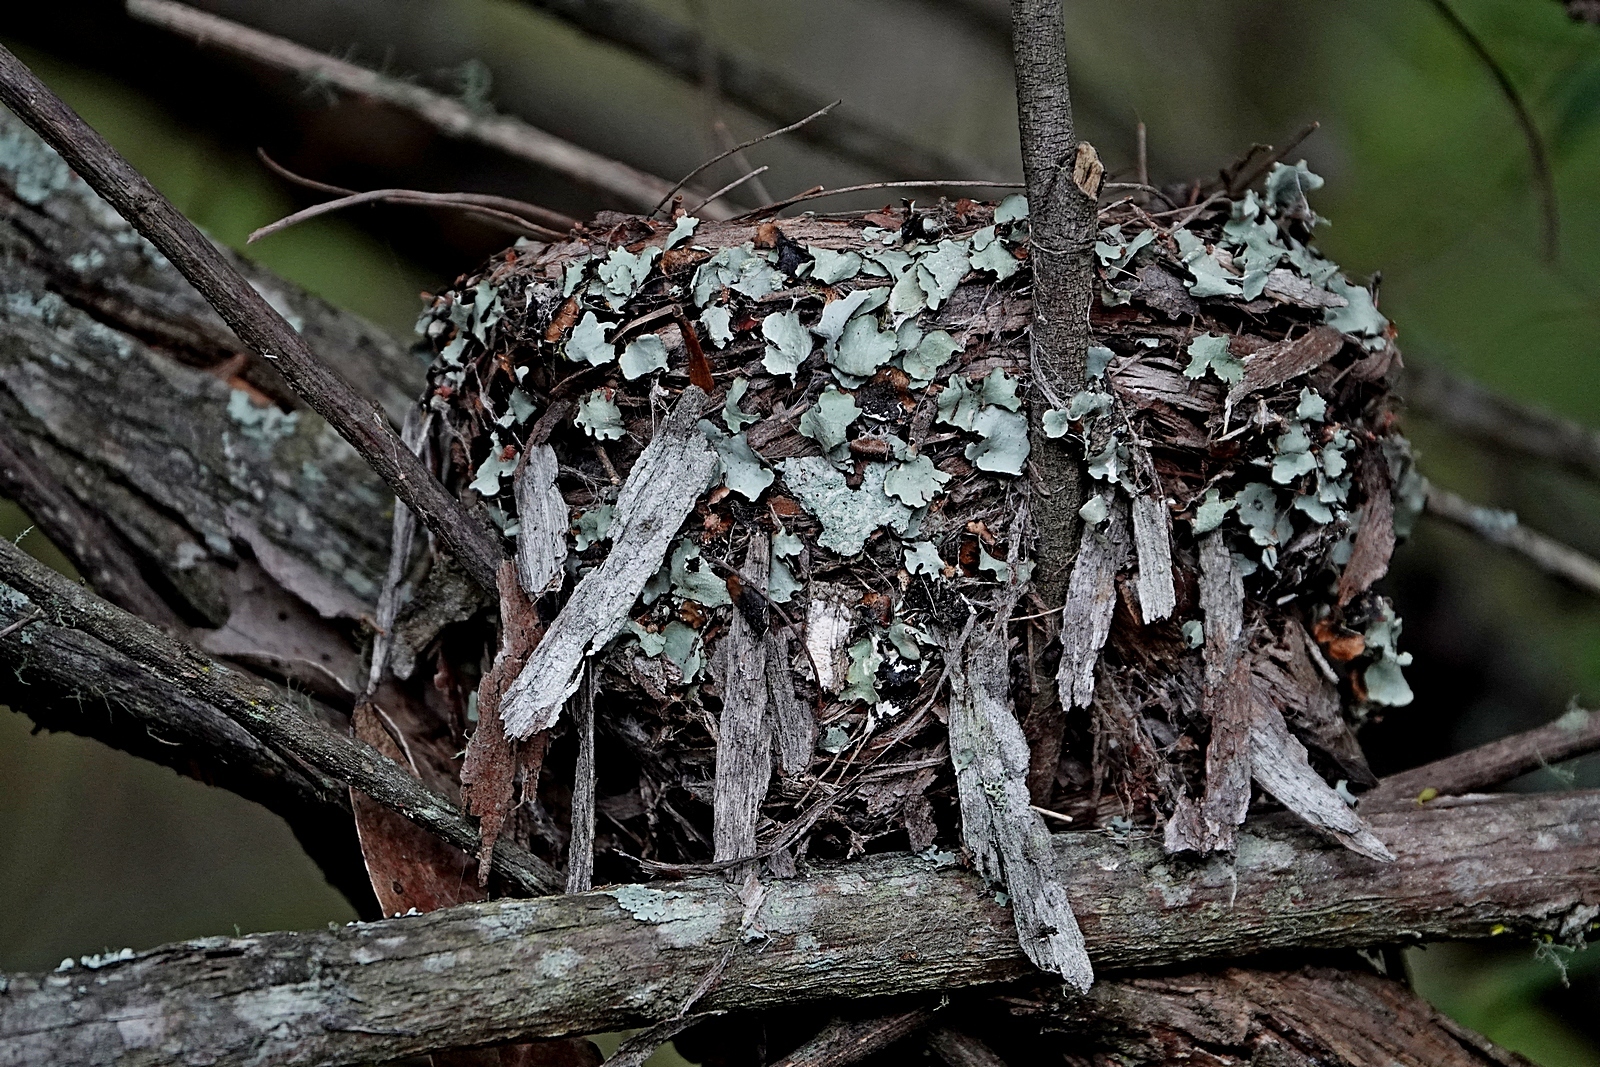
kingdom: Animalia
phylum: Chordata
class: Aves
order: Passeriformes
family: Petroicidae
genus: Eopsaltria
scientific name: Eopsaltria australis
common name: Eastern yellow robin
